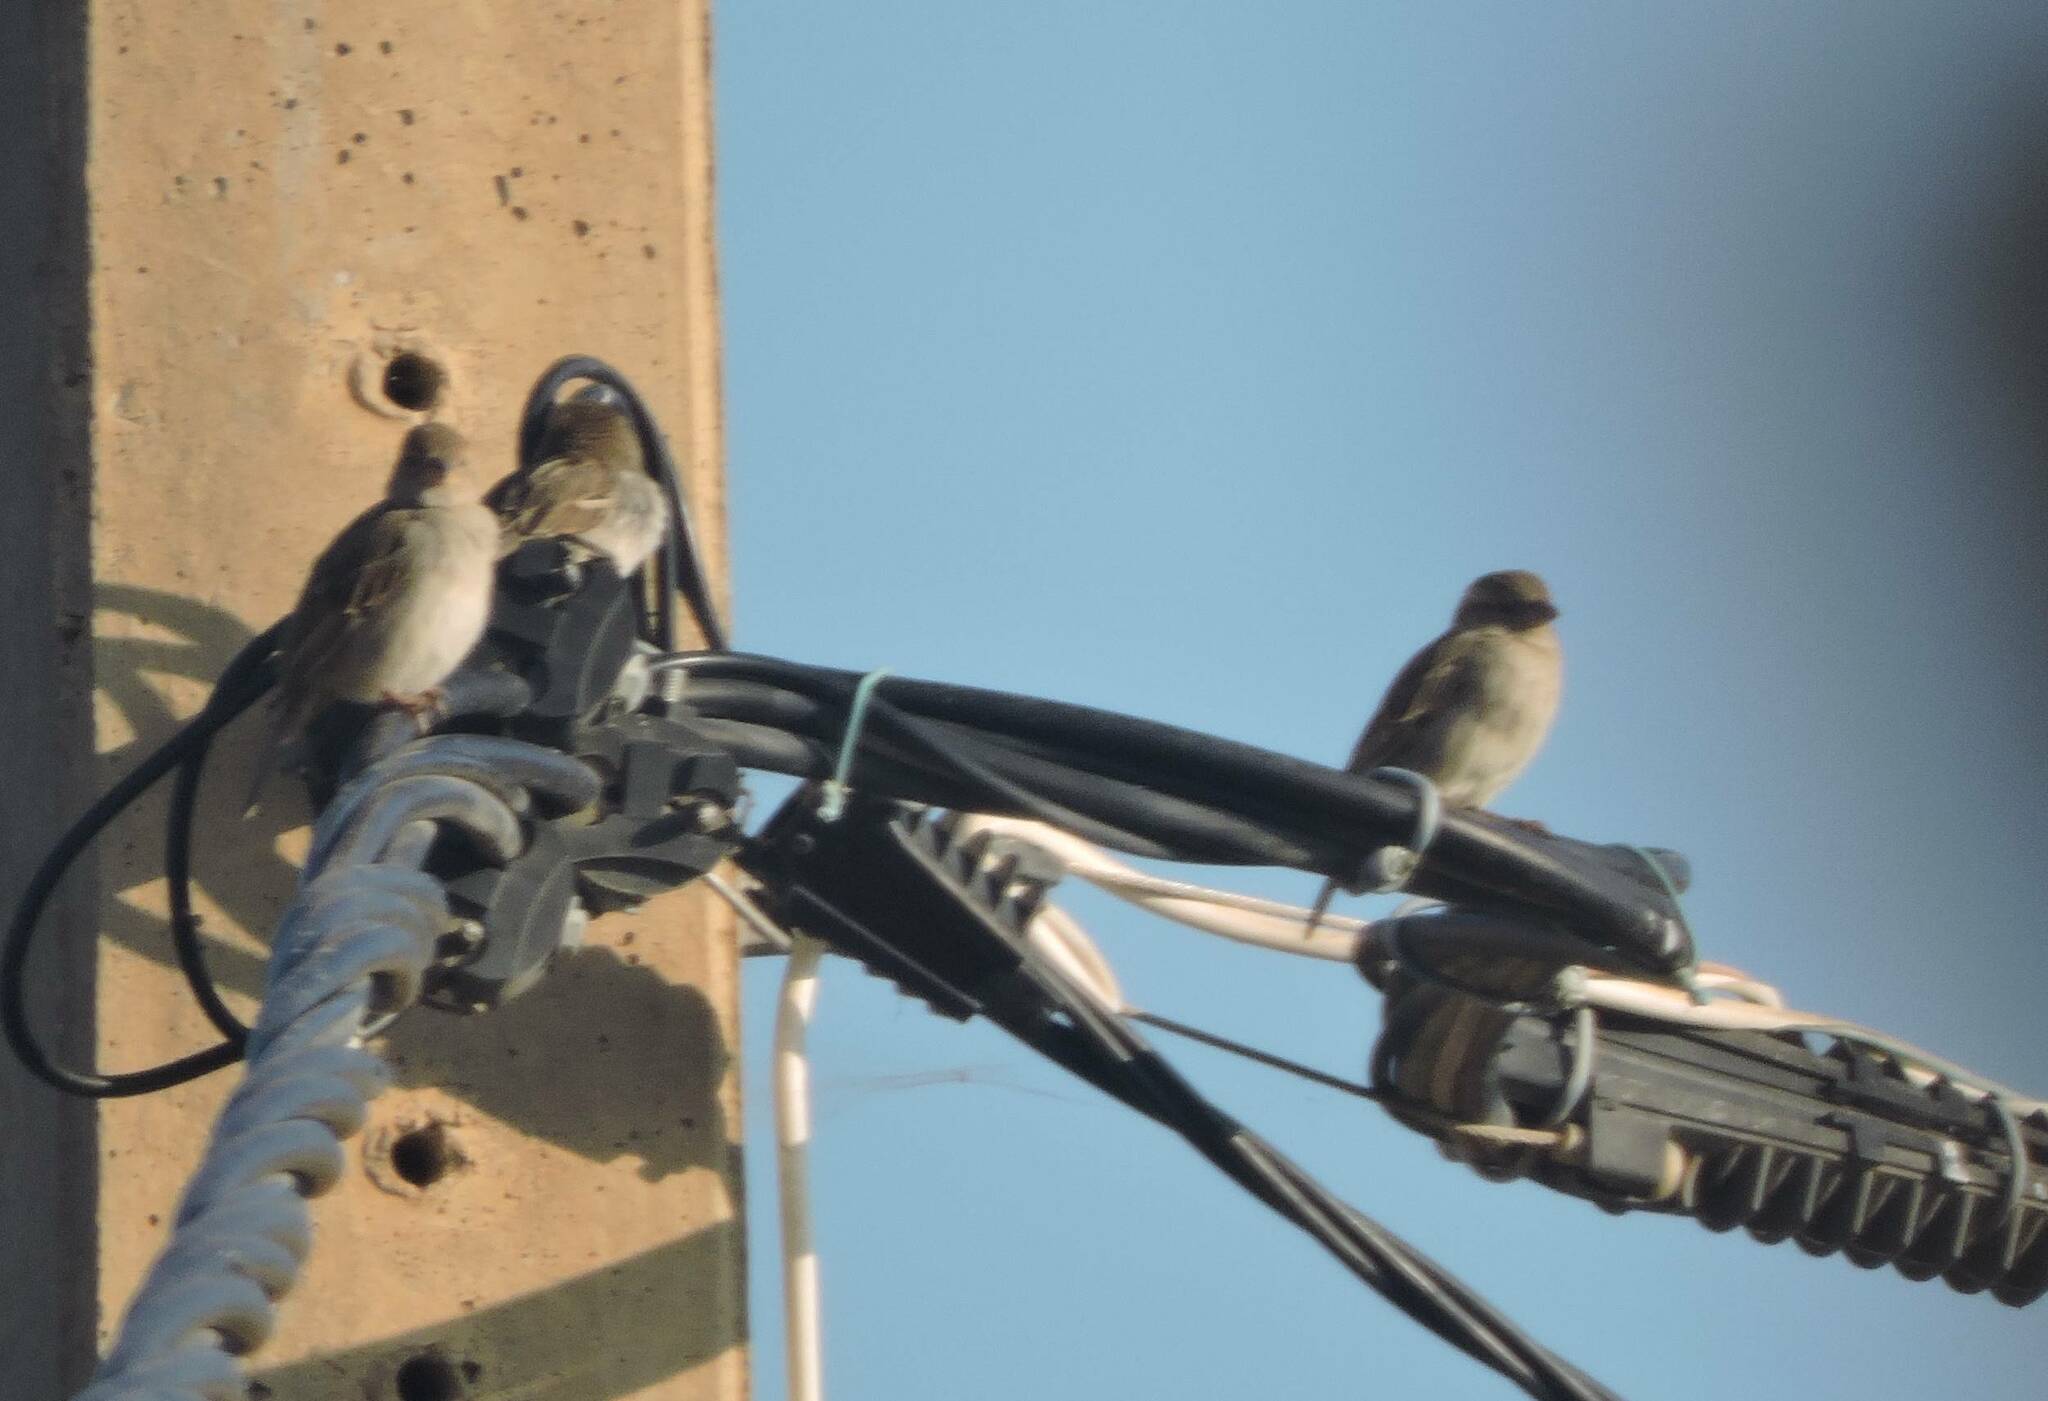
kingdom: Animalia
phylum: Chordata
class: Aves
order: Passeriformes
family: Passeridae
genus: Passer
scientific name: Passer domesticus
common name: House sparrow
